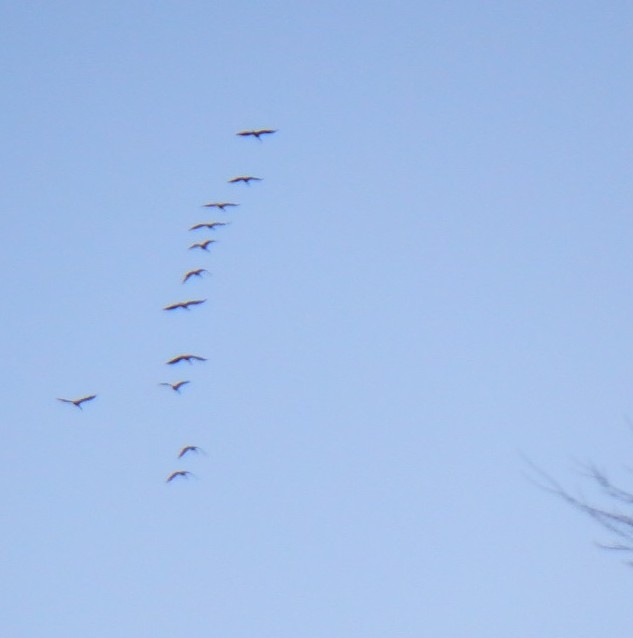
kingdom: Animalia
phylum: Chordata
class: Aves
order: Anseriformes
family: Anatidae
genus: Branta
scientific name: Branta canadensis
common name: Canada goose
